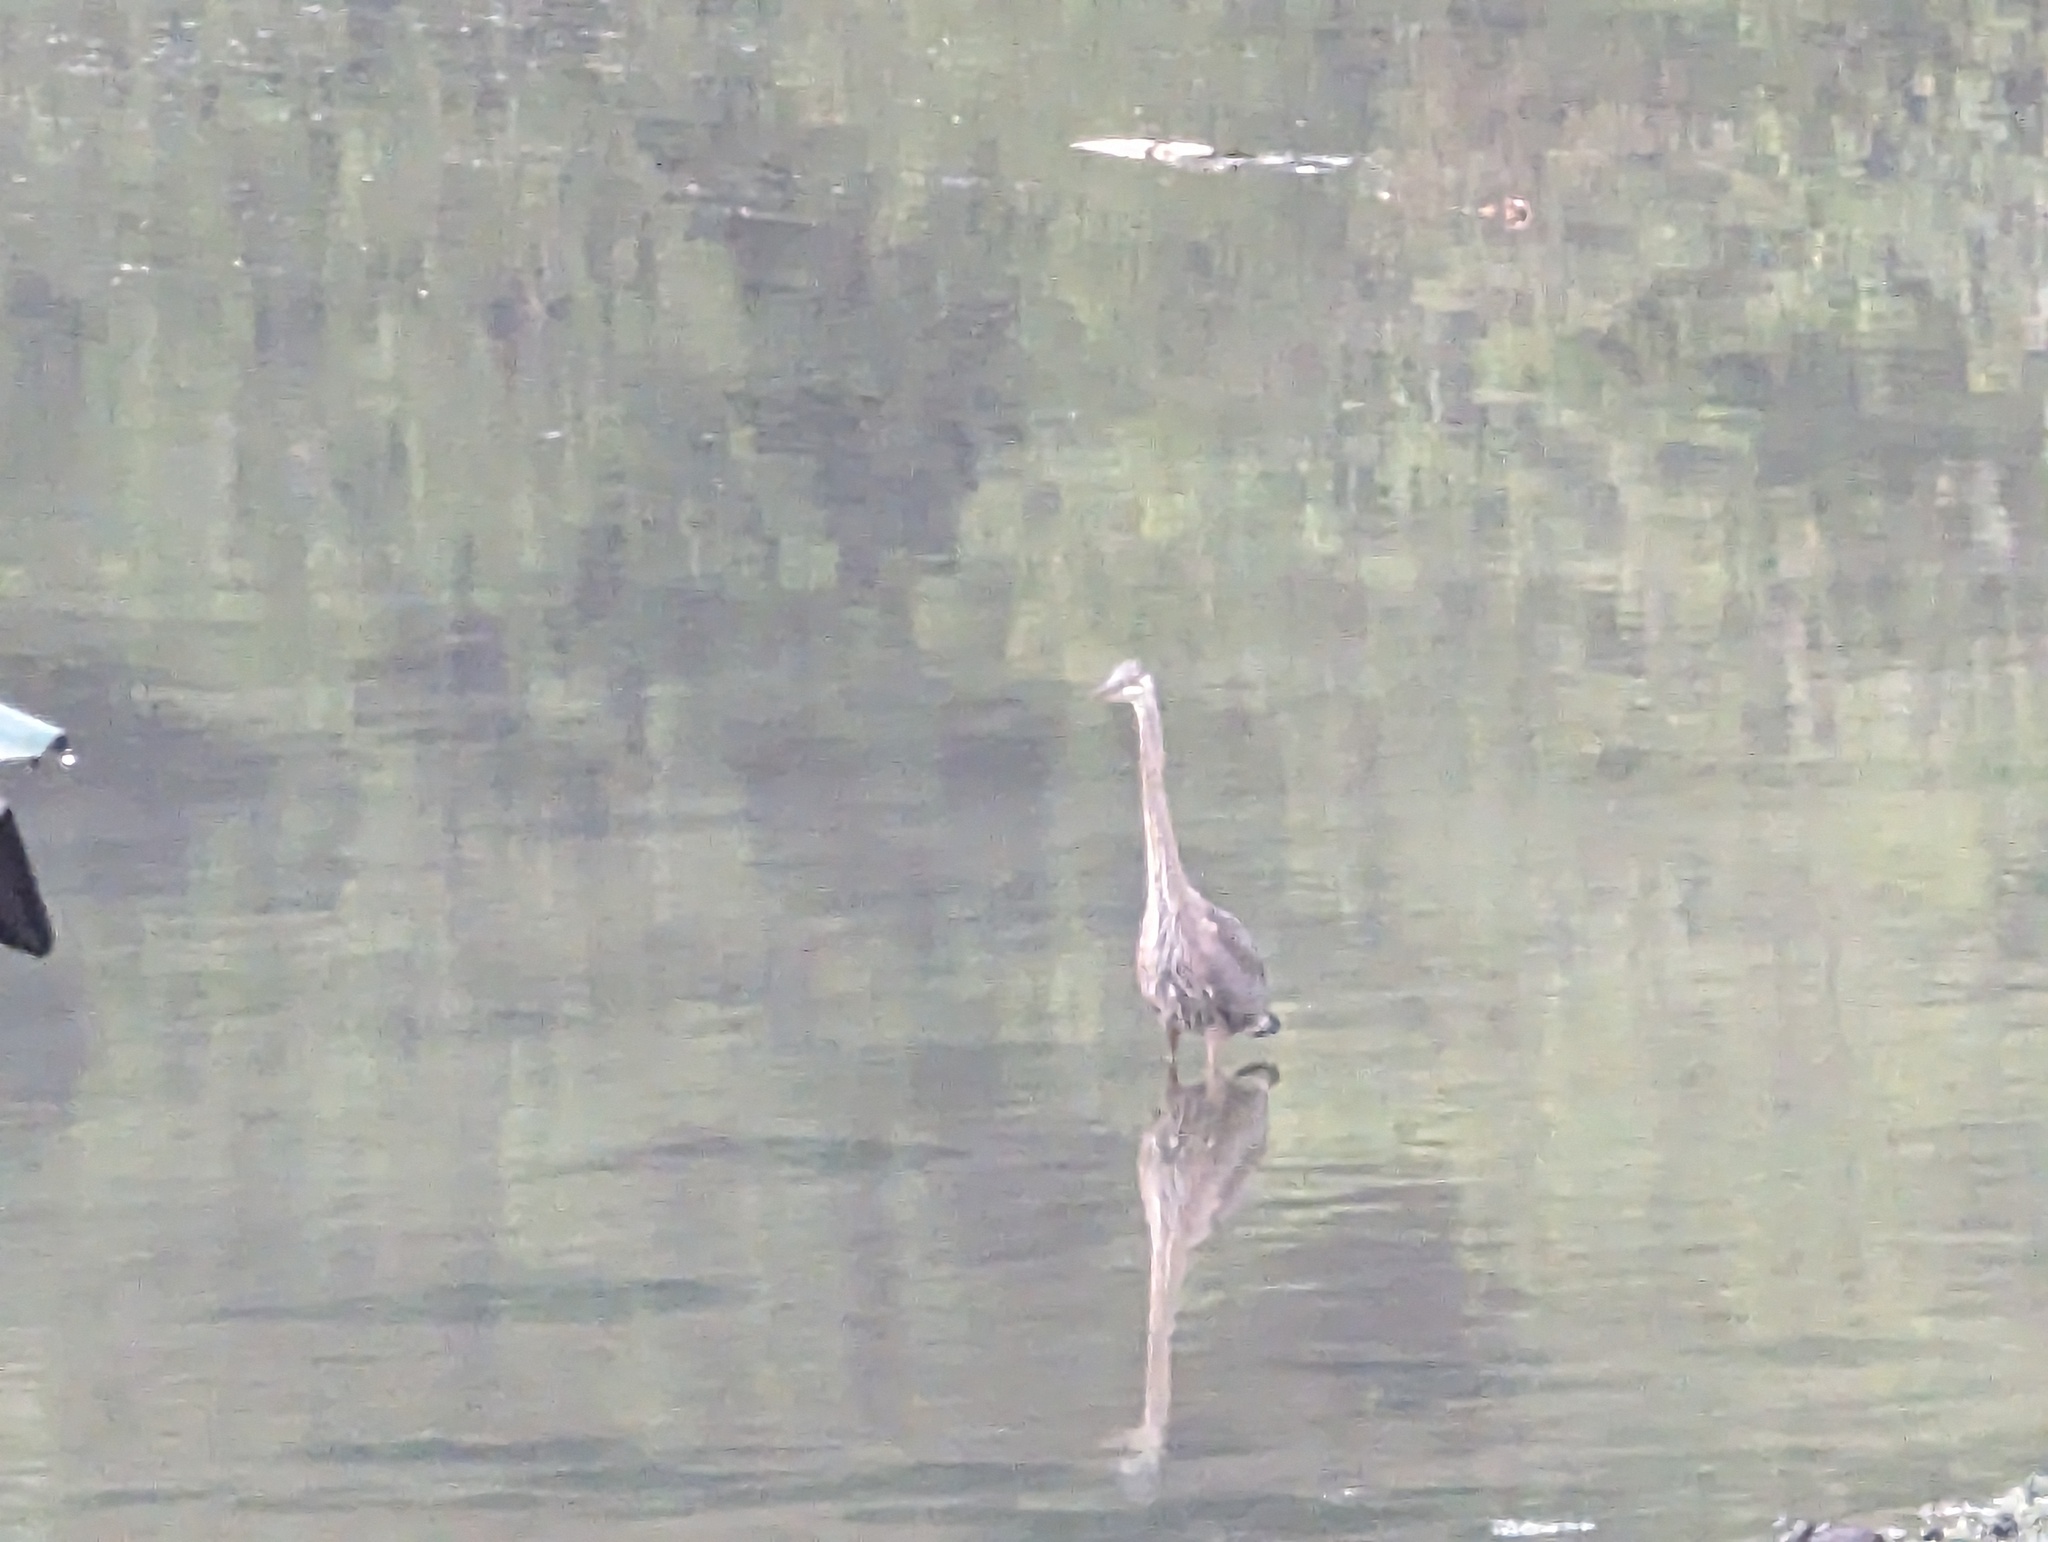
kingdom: Animalia
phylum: Chordata
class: Aves
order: Pelecaniformes
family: Ardeidae
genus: Ardea
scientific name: Ardea herodias
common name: Great blue heron
